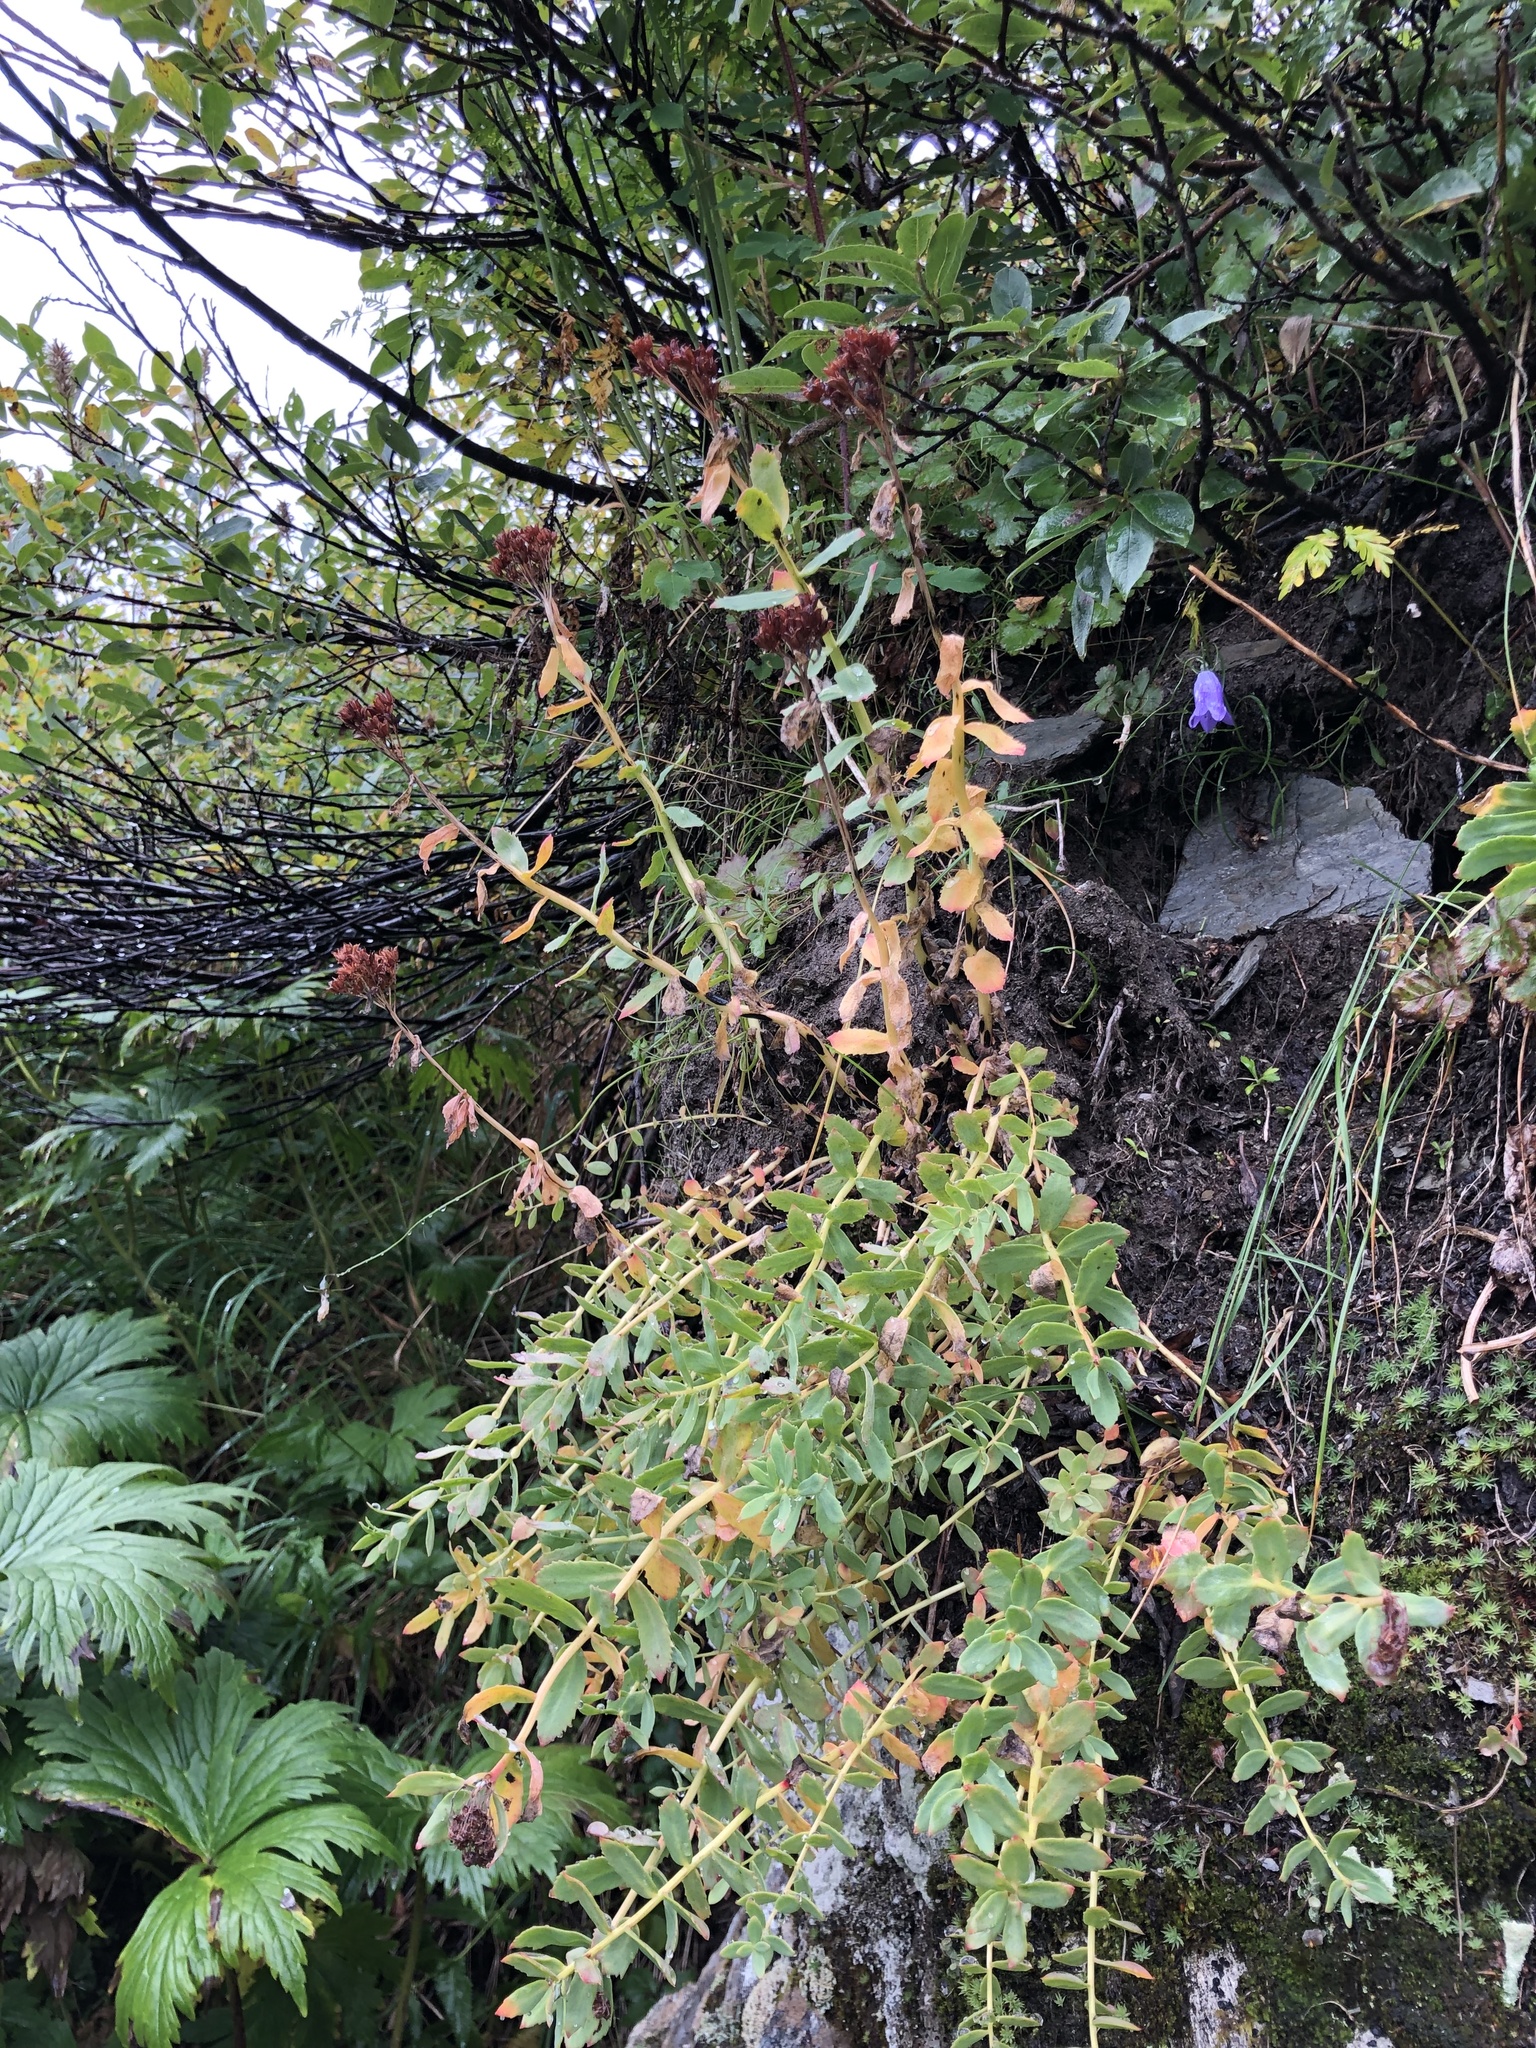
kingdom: Plantae
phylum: Tracheophyta
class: Magnoliopsida
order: Saxifragales
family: Crassulaceae
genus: Rhodiola
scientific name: Rhodiola rosea
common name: Roseroot
